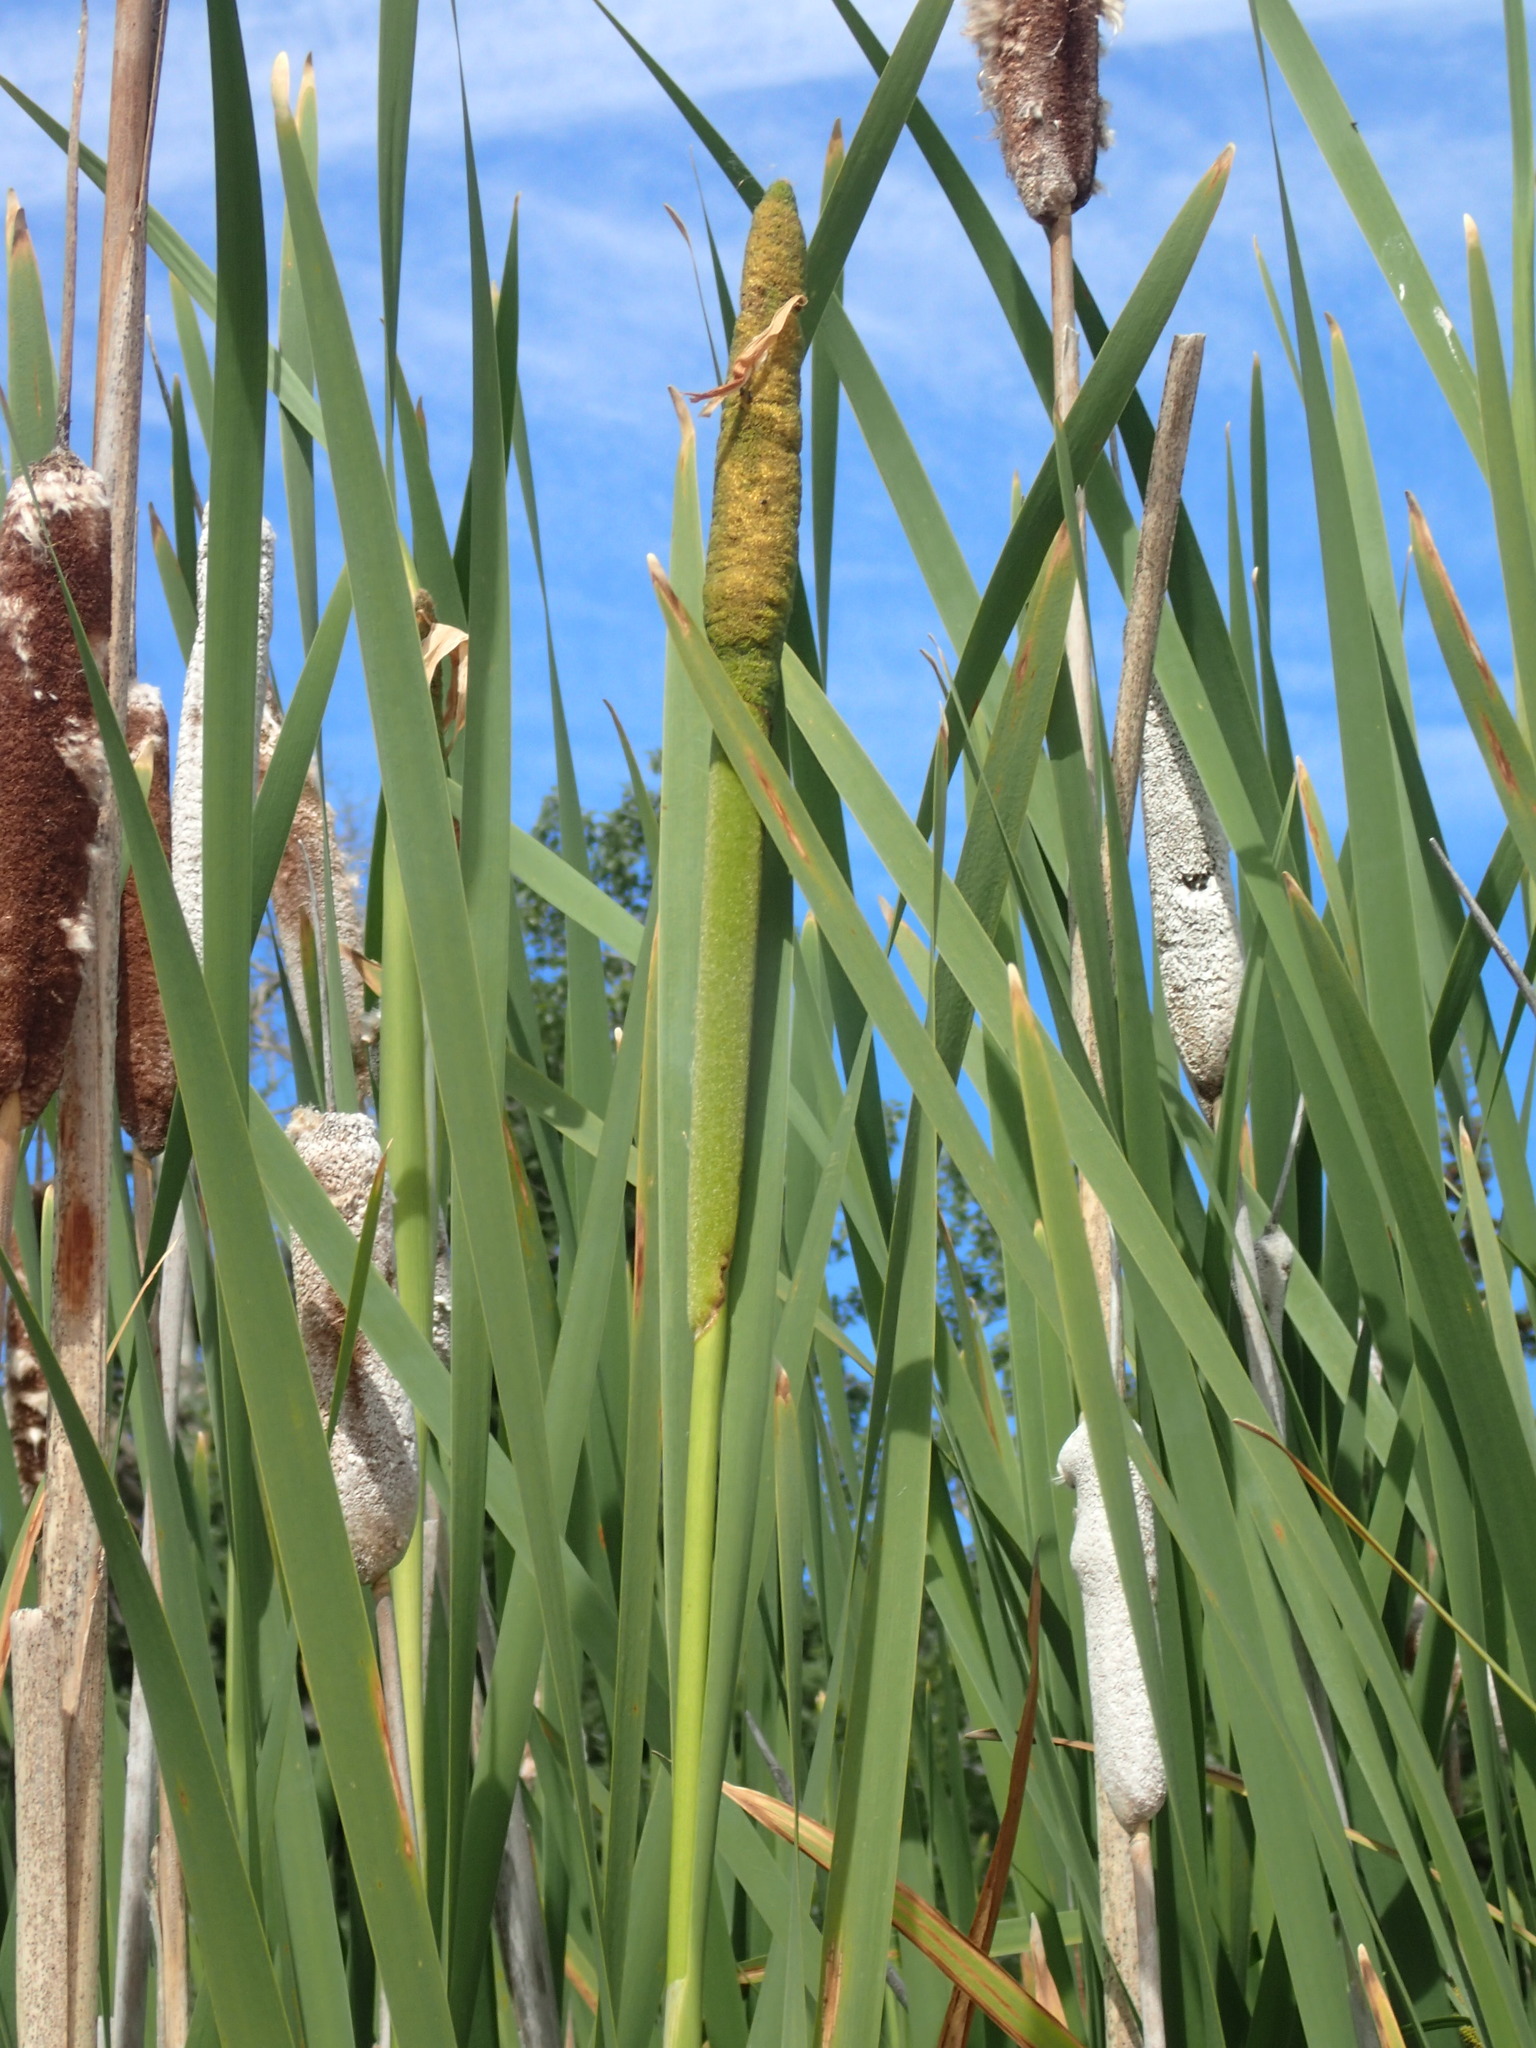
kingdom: Plantae
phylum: Tracheophyta
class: Liliopsida
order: Poales
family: Typhaceae
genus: Typha
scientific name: Typha latifolia
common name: Broadleaf cattail
